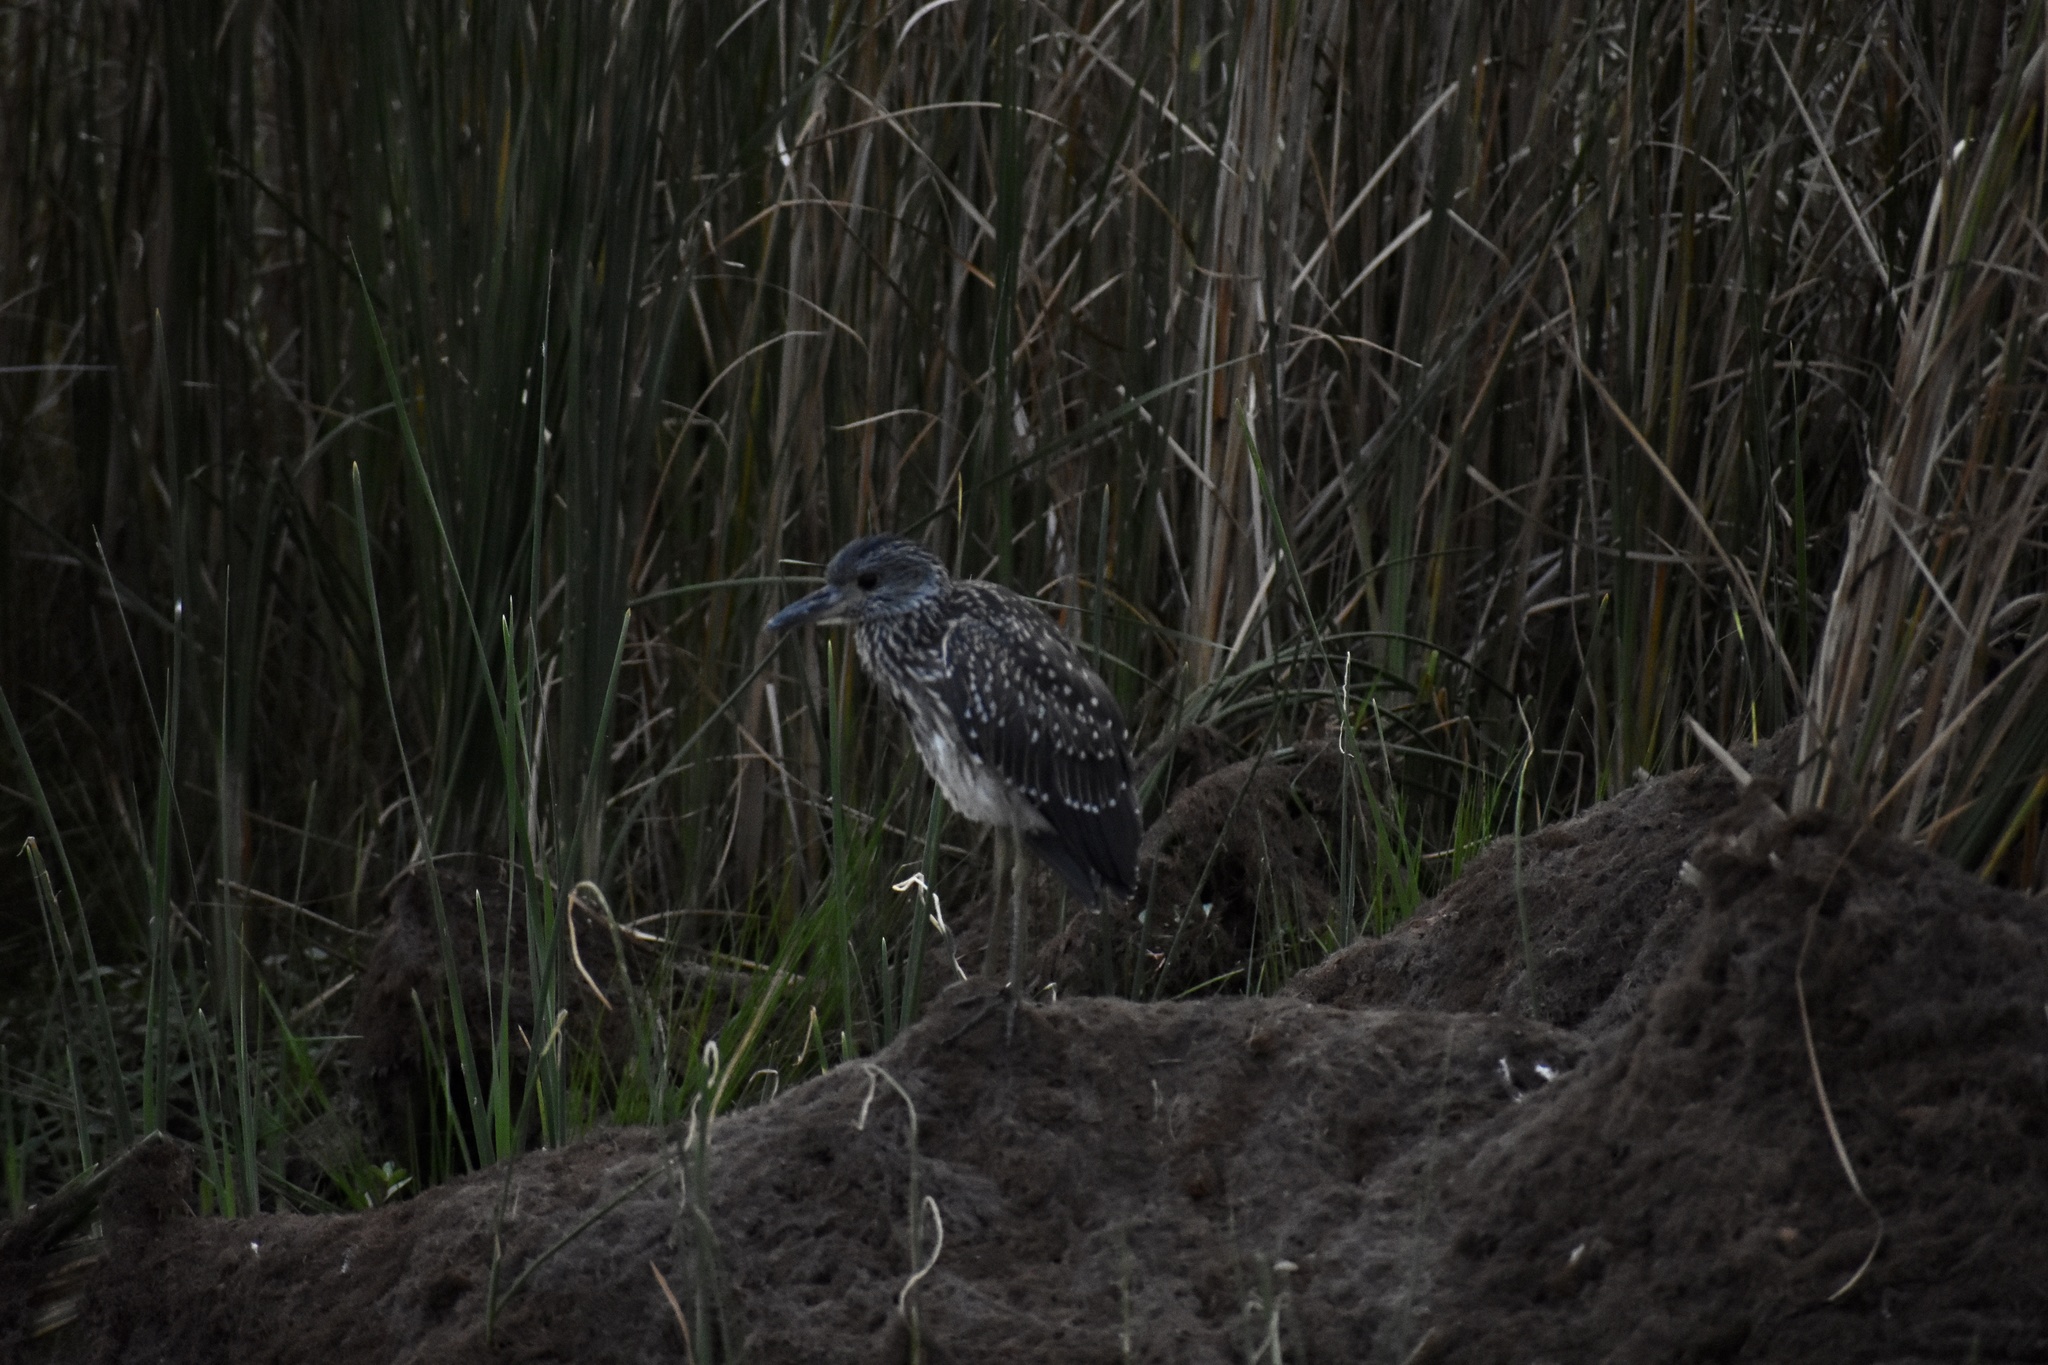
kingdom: Animalia
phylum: Chordata
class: Aves
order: Pelecaniformes
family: Ardeidae
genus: Nyctanassa
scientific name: Nyctanassa violacea
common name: Yellow-crowned night heron
